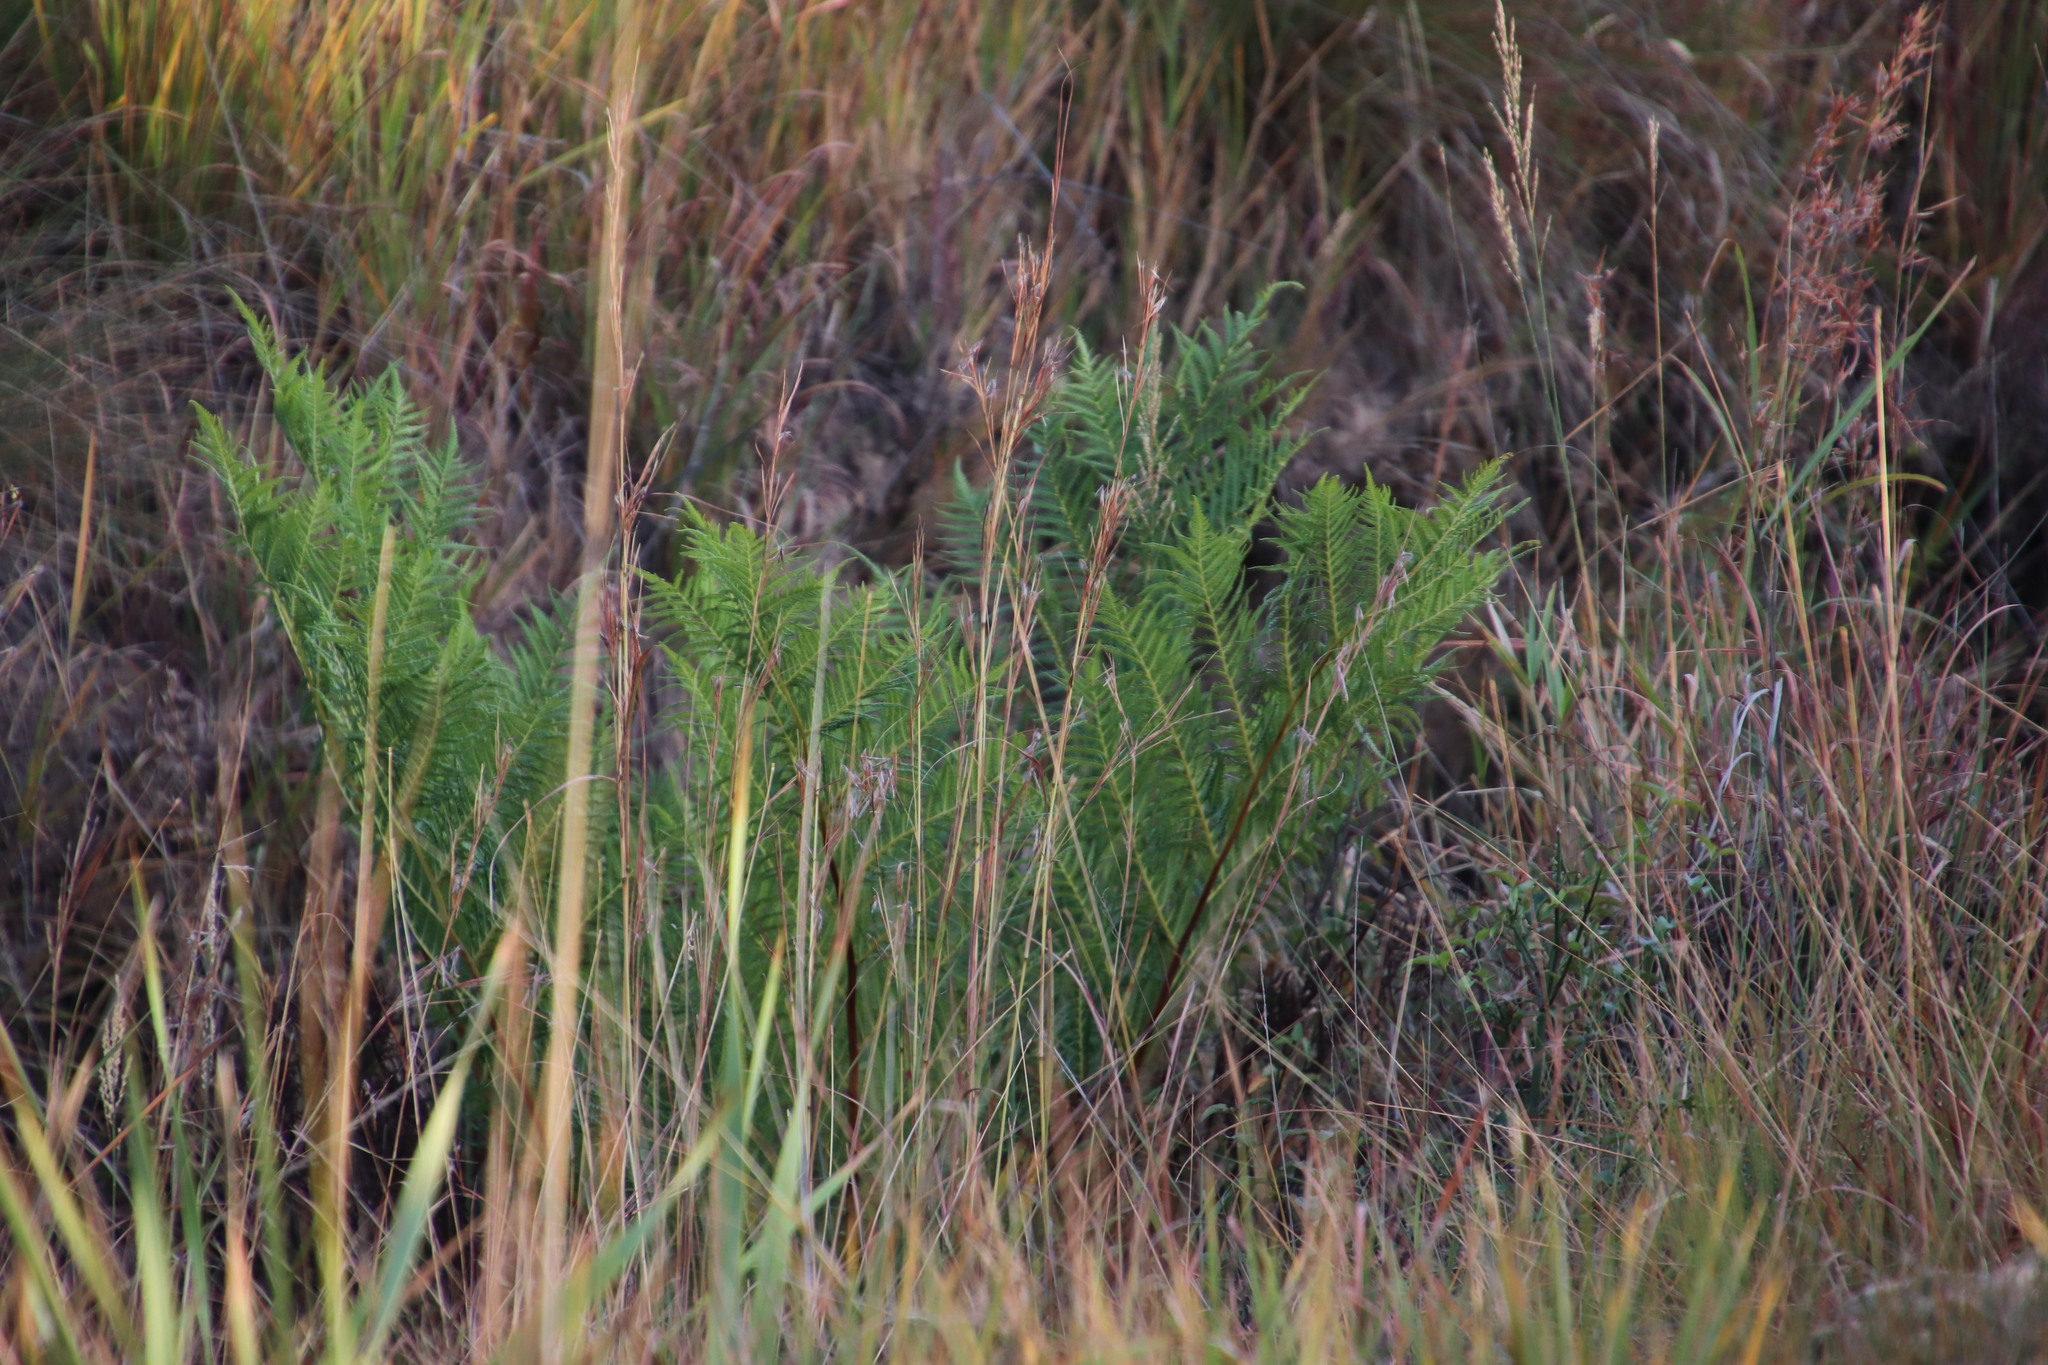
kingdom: Plantae
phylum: Tracheophyta
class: Polypodiopsida
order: Cyatheales
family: Cyatheaceae
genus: Alsophila
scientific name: Alsophila dregei
